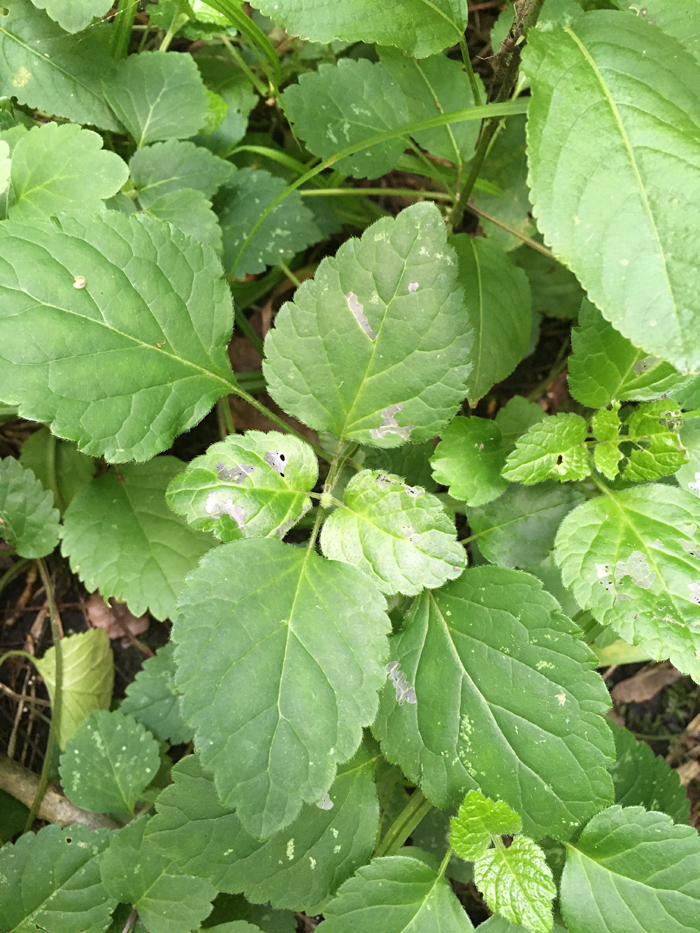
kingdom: Plantae
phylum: Tracheophyta
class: Magnoliopsida
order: Lamiales
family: Lamiaceae
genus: Lamium
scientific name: Lamium galeobdolon
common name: Yellow archangel
